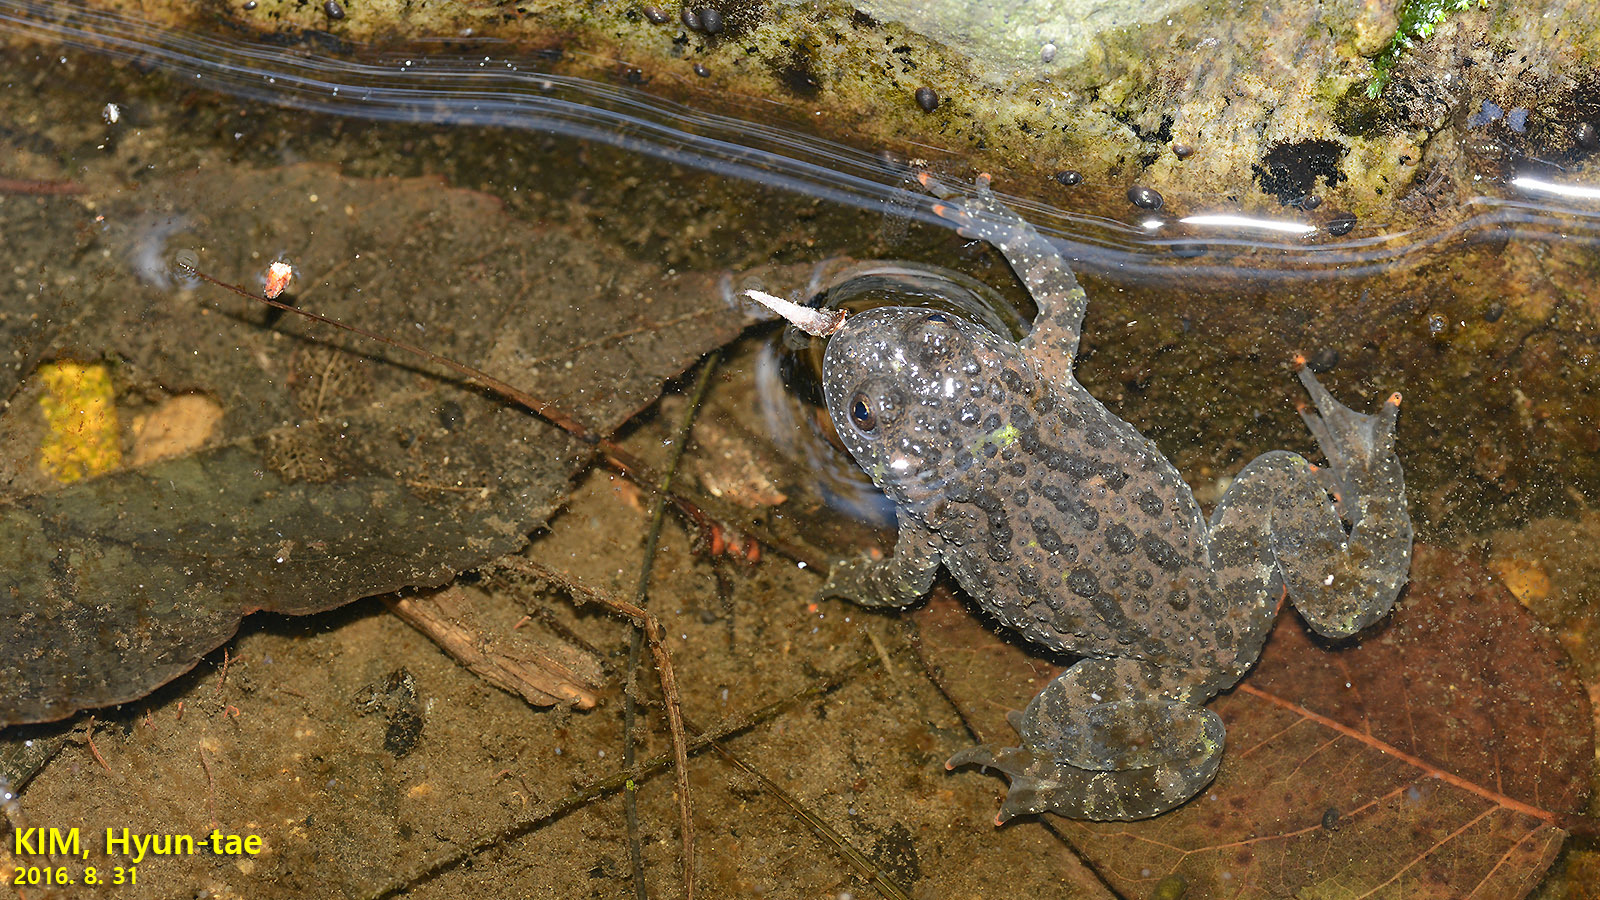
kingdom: Animalia
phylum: Chordata
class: Amphibia
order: Anura
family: Bombinatoridae
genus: Bombina
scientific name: Bombina orientalis
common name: Oriental firebelly toad
